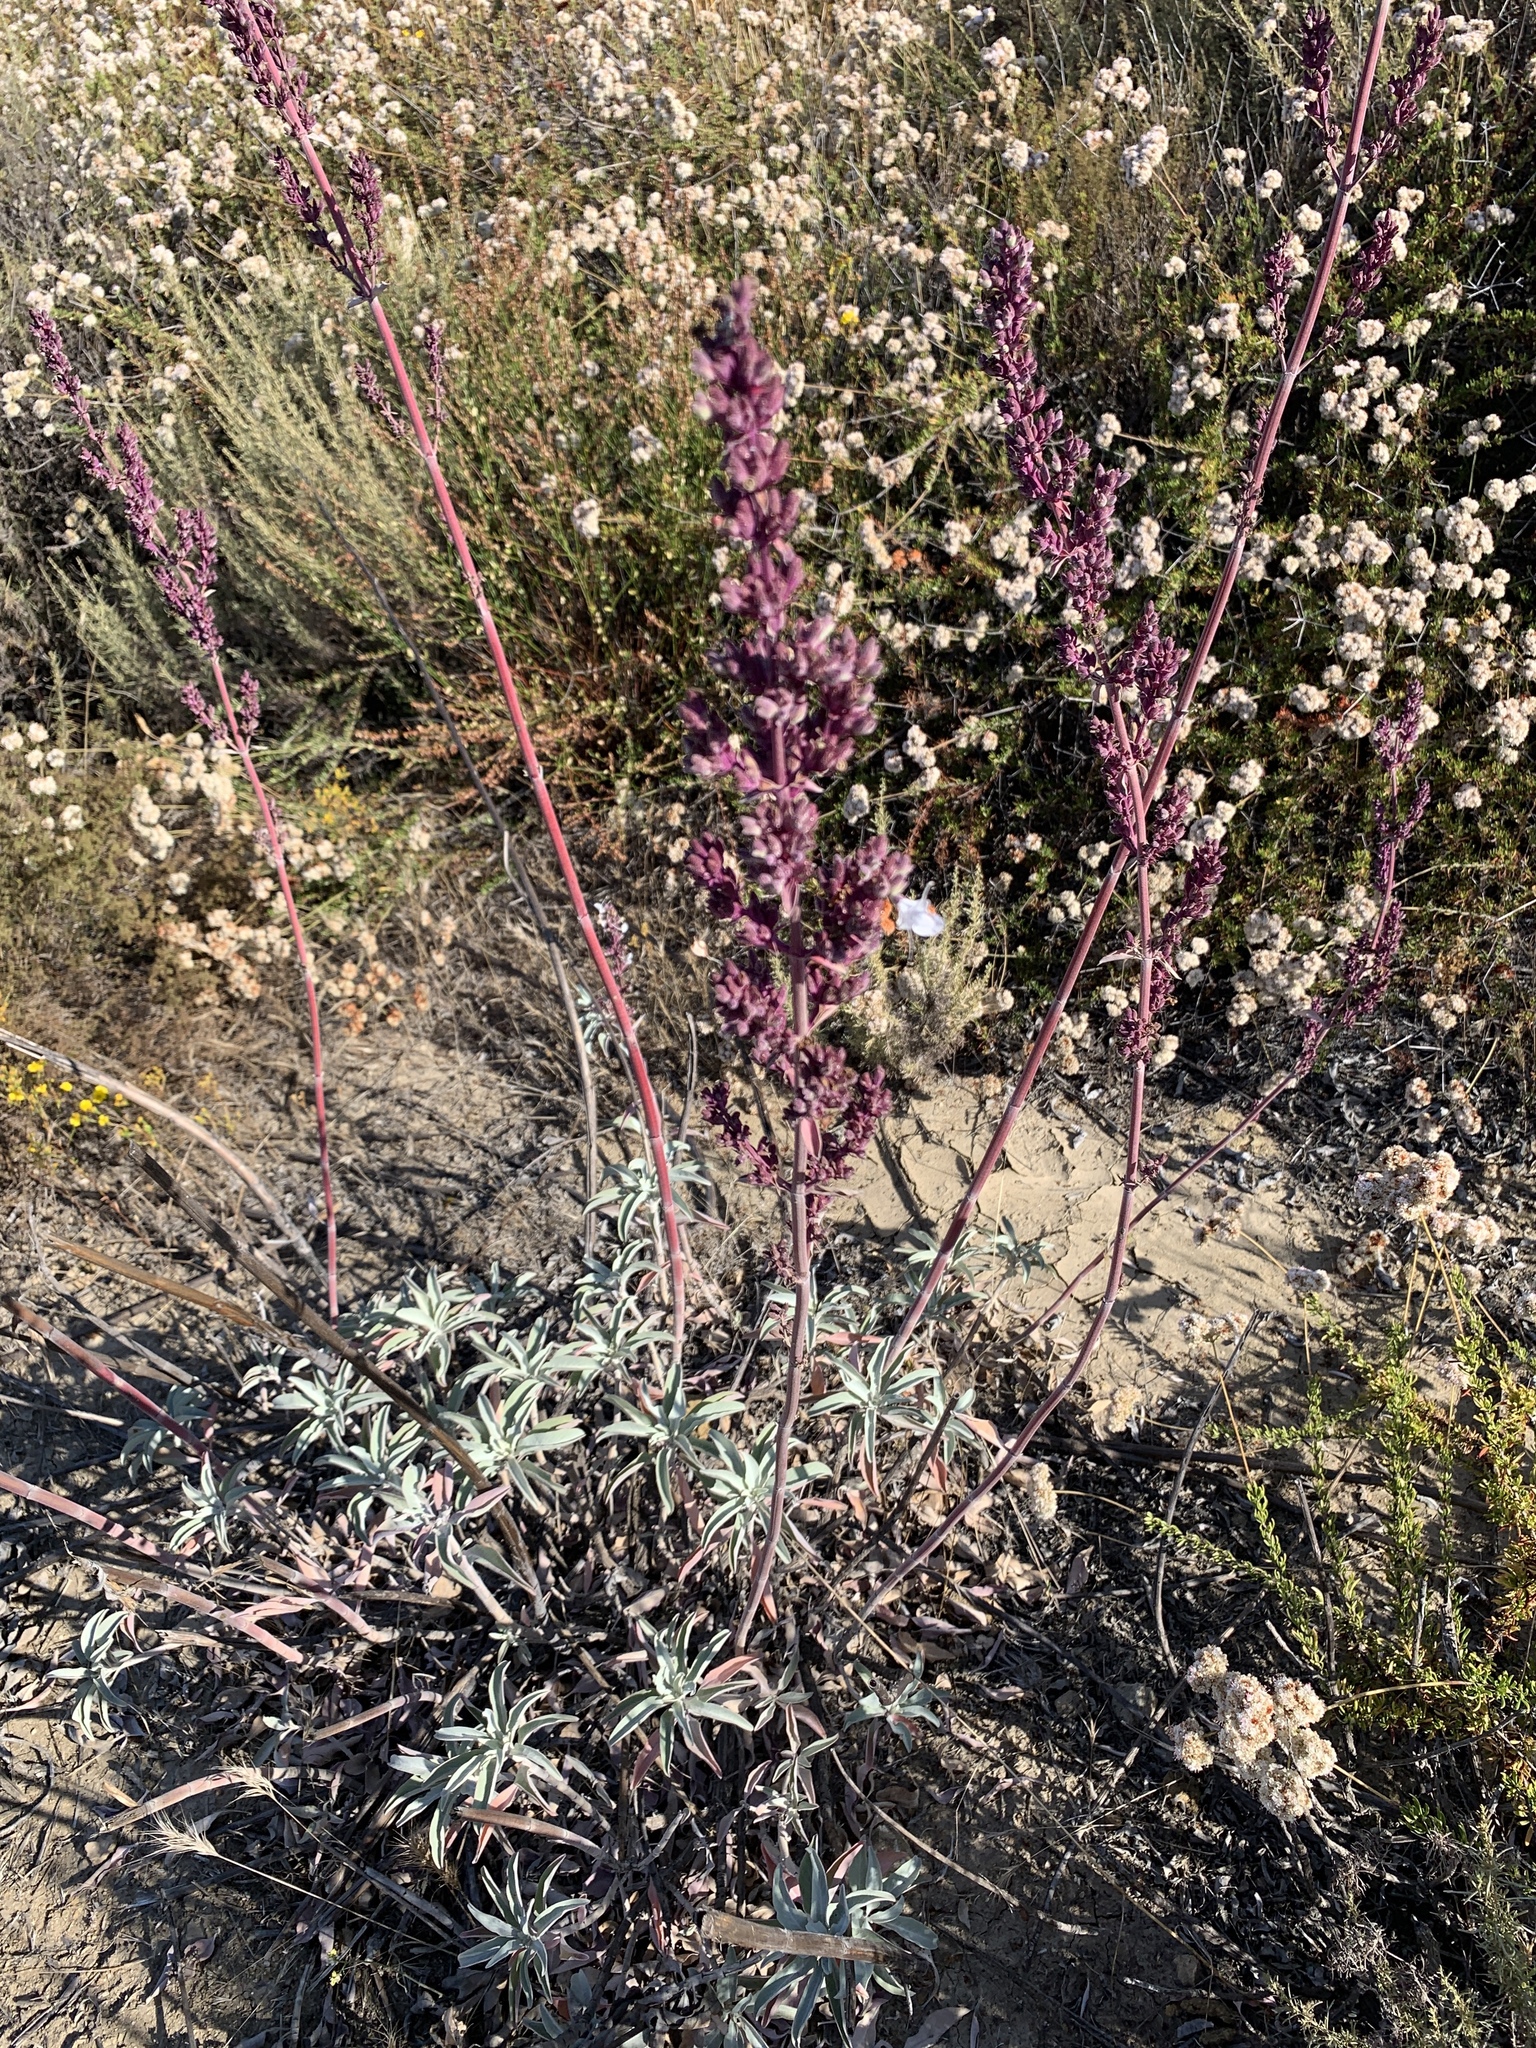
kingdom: Plantae
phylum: Tracheophyta
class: Magnoliopsida
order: Lamiales
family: Lamiaceae
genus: Salvia
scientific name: Salvia apiana
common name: White sage
